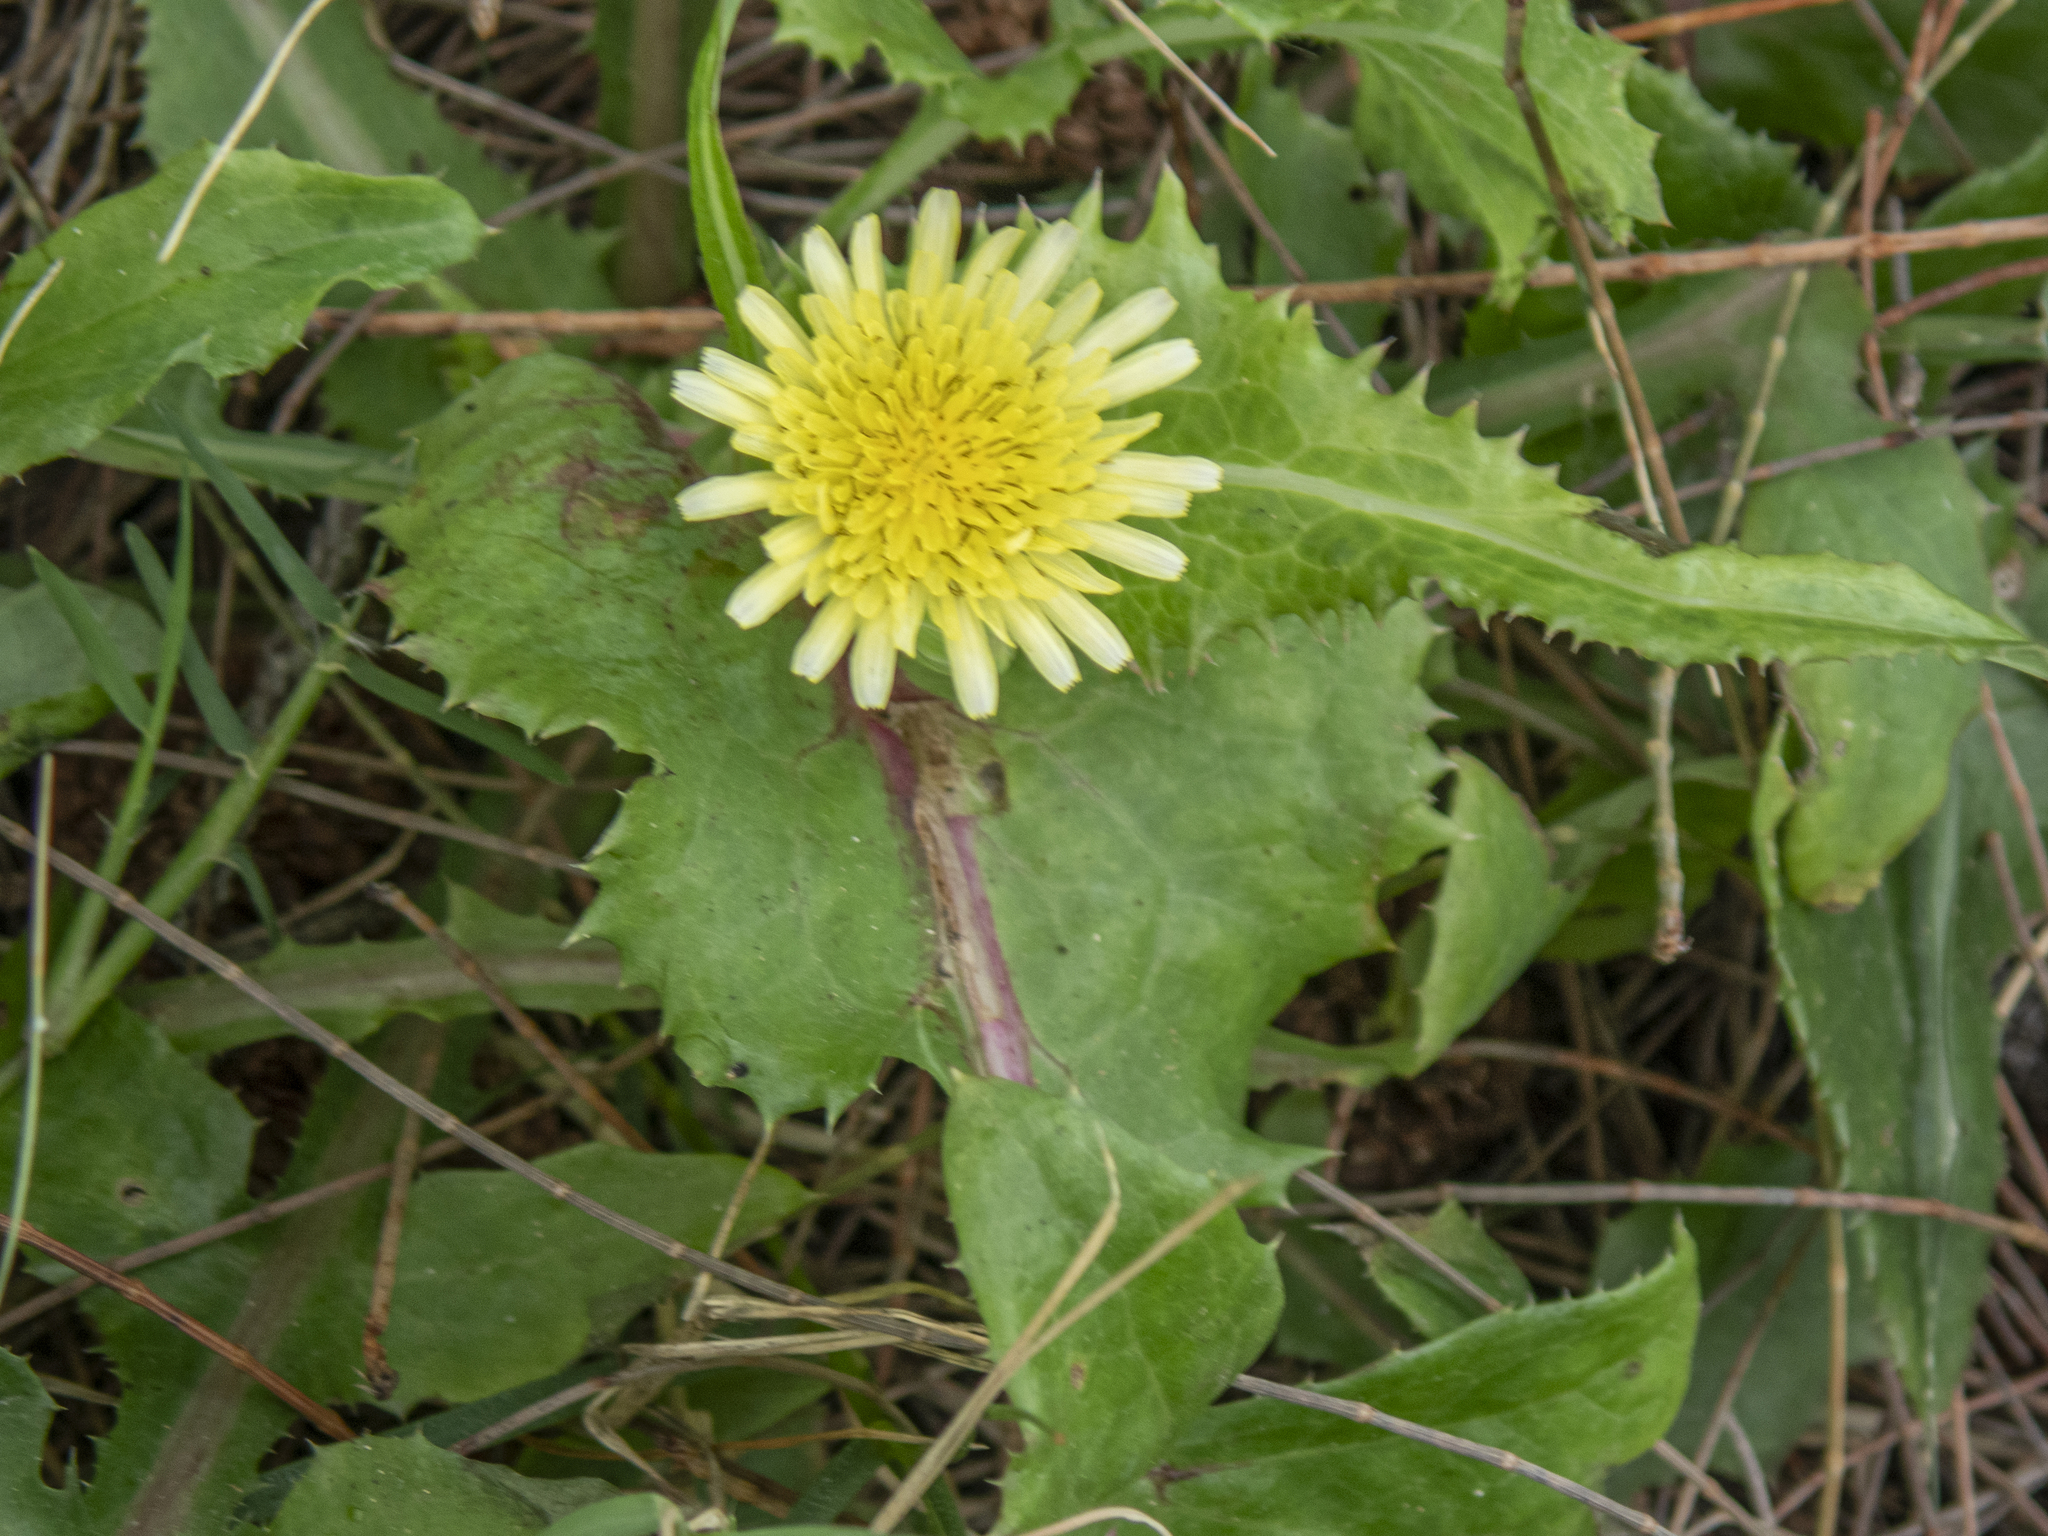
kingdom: Plantae
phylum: Tracheophyta
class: Magnoliopsida
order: Asterales
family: Asteraceae
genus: Sonchus
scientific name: Sonchus oleraceus
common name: Common sowthistle
